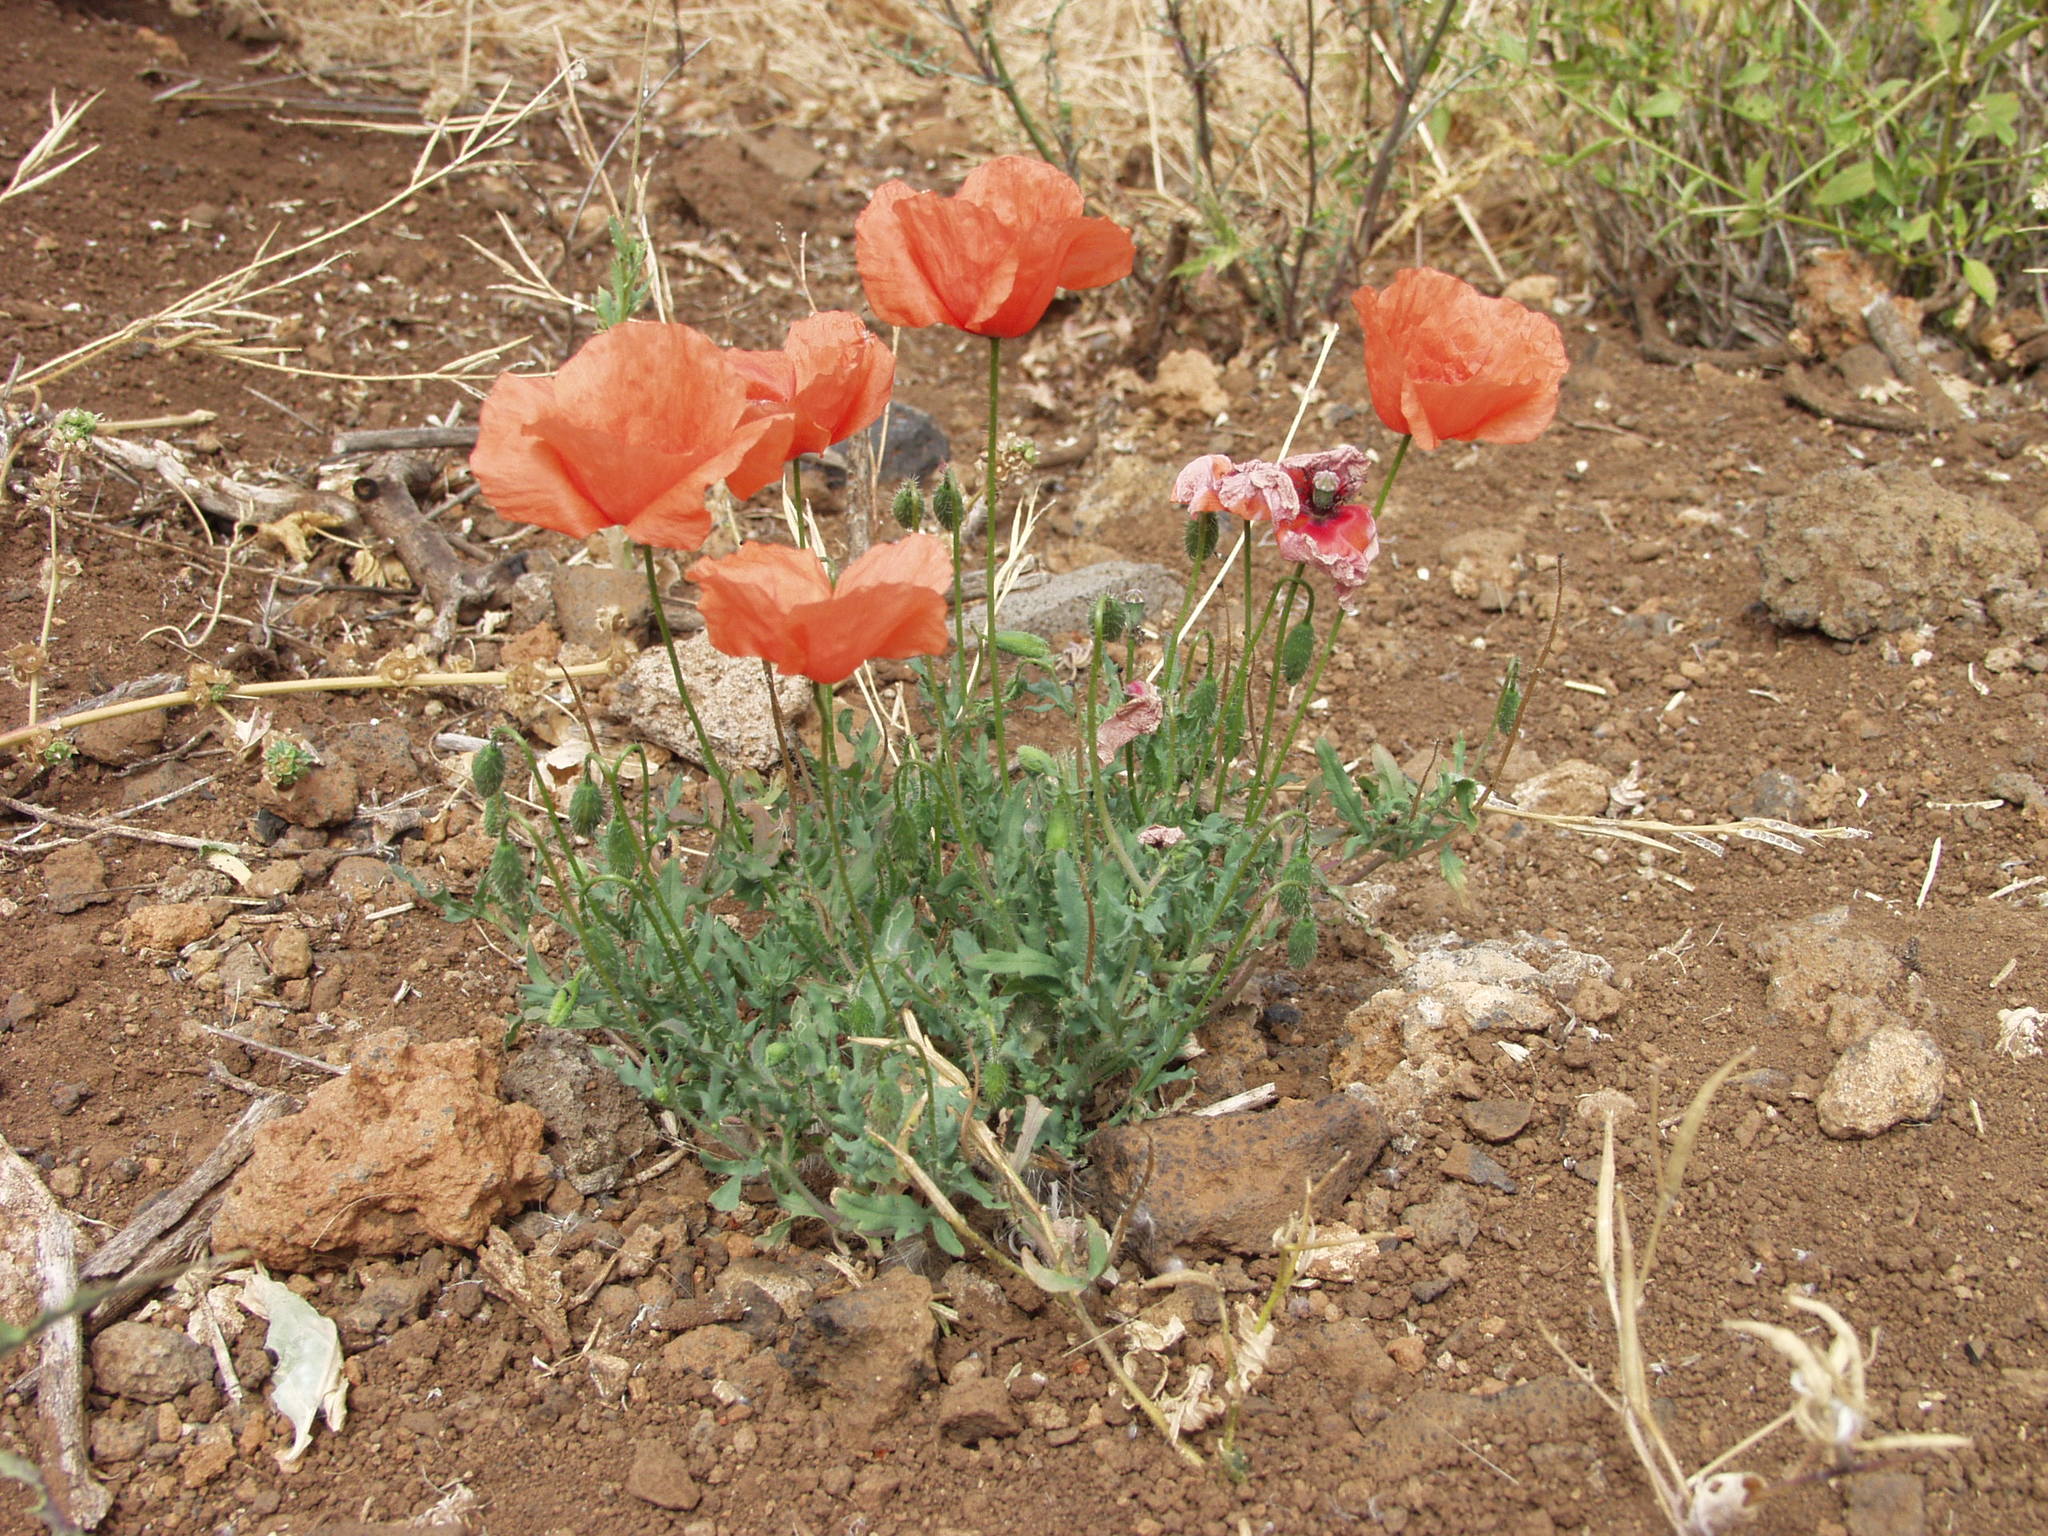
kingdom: Plantae
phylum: Tracheophyta
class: Magnoliopsida
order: Ranunculales
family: Papaveraceae
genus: Papaver
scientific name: Papaver rhoeas
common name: Corn poppy
